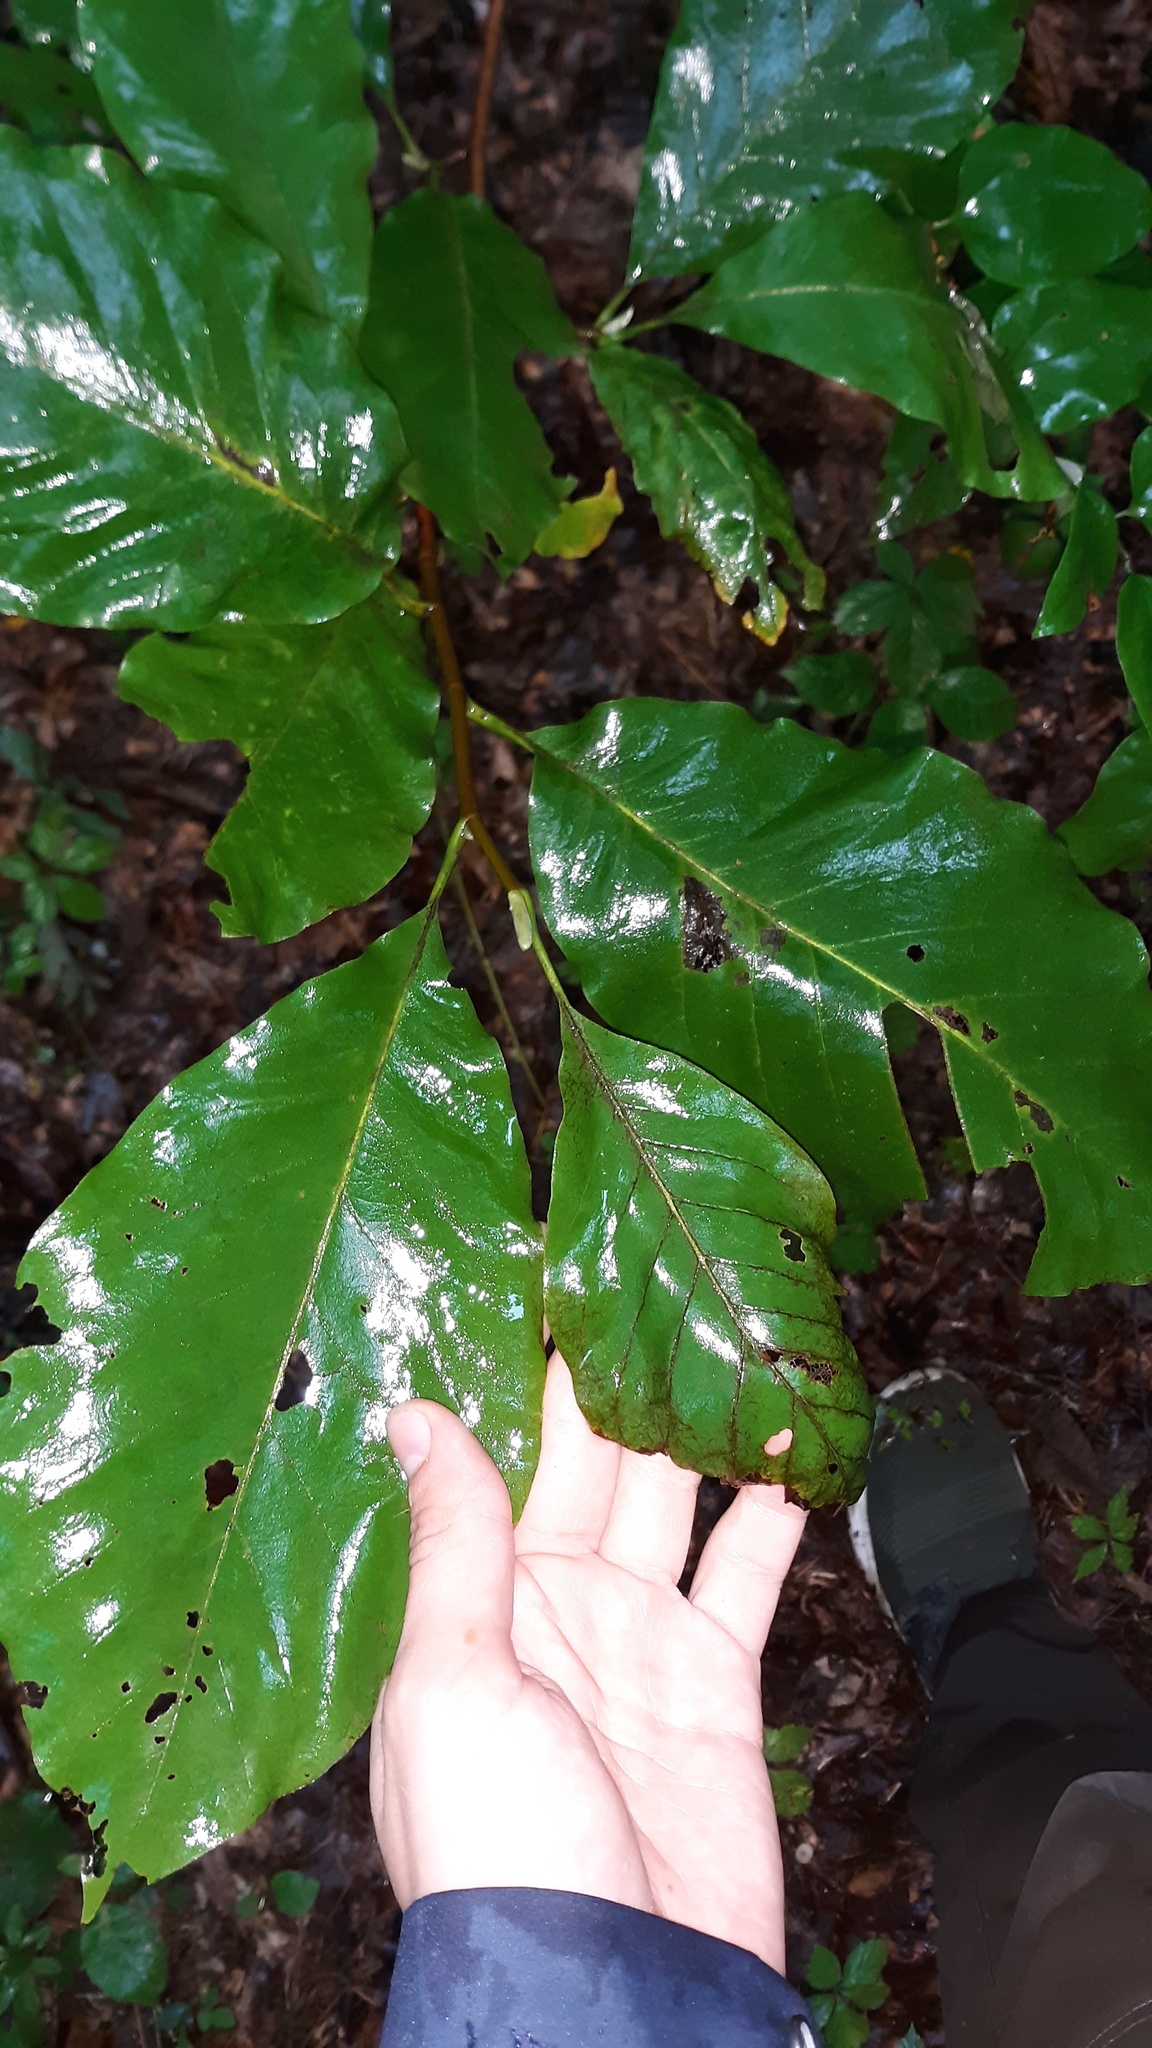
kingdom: Plantae
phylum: Tracheophyta
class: Magnoliopsida
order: Magnoliales
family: Magnoliaceae
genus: Magnolia
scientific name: Magnolia acuminata
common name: Cucumber magnolia
